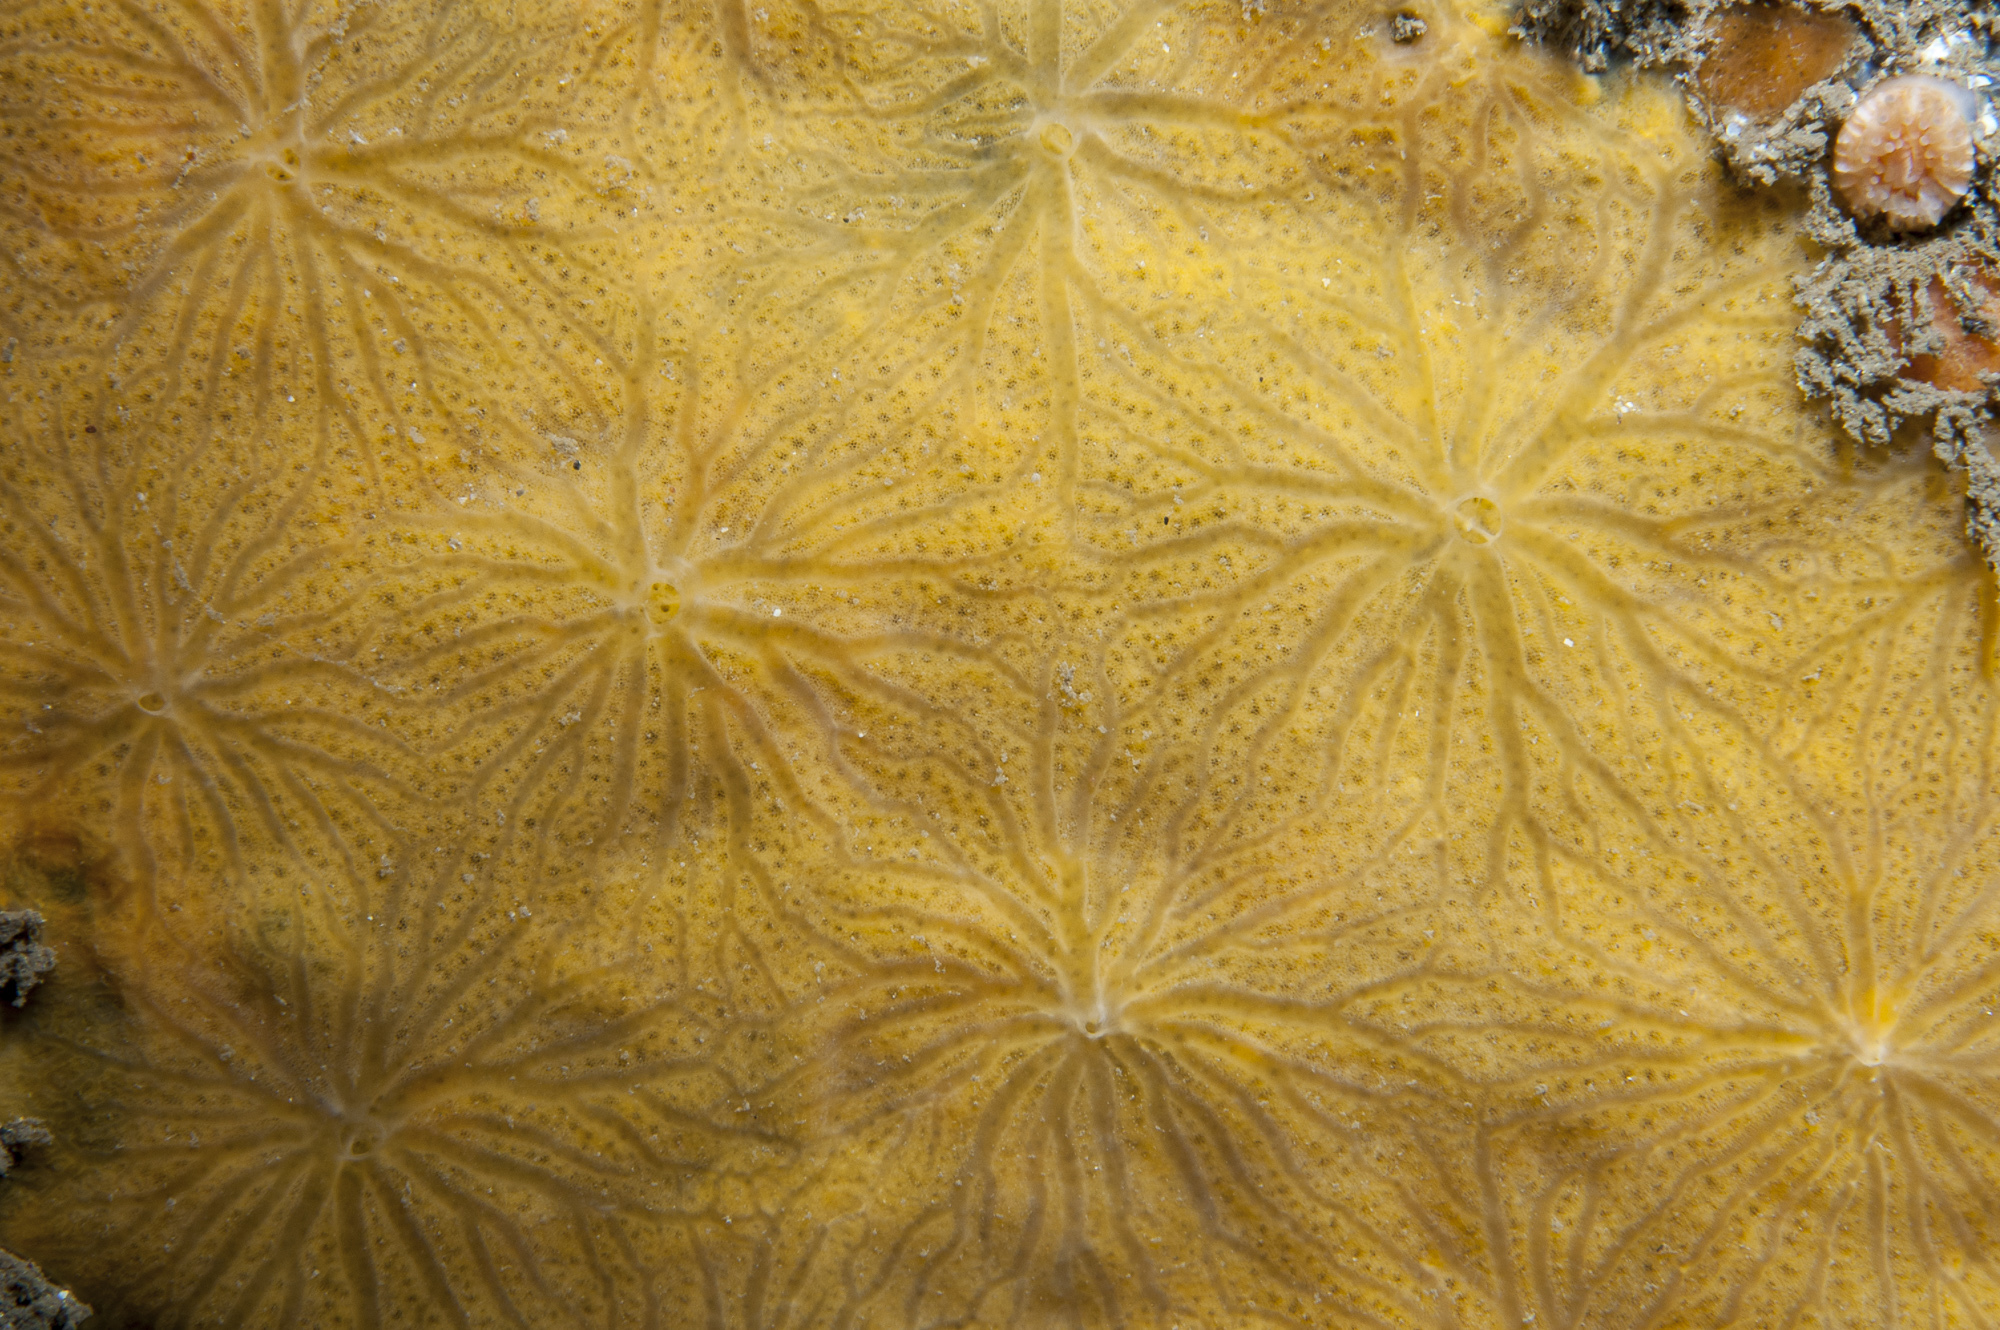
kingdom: Animalia
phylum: Porifera
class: Demospongiae
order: Poecilosclerida
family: Hymedesmiidae
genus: Hymedesmia
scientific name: Hymedesmia stellifera
